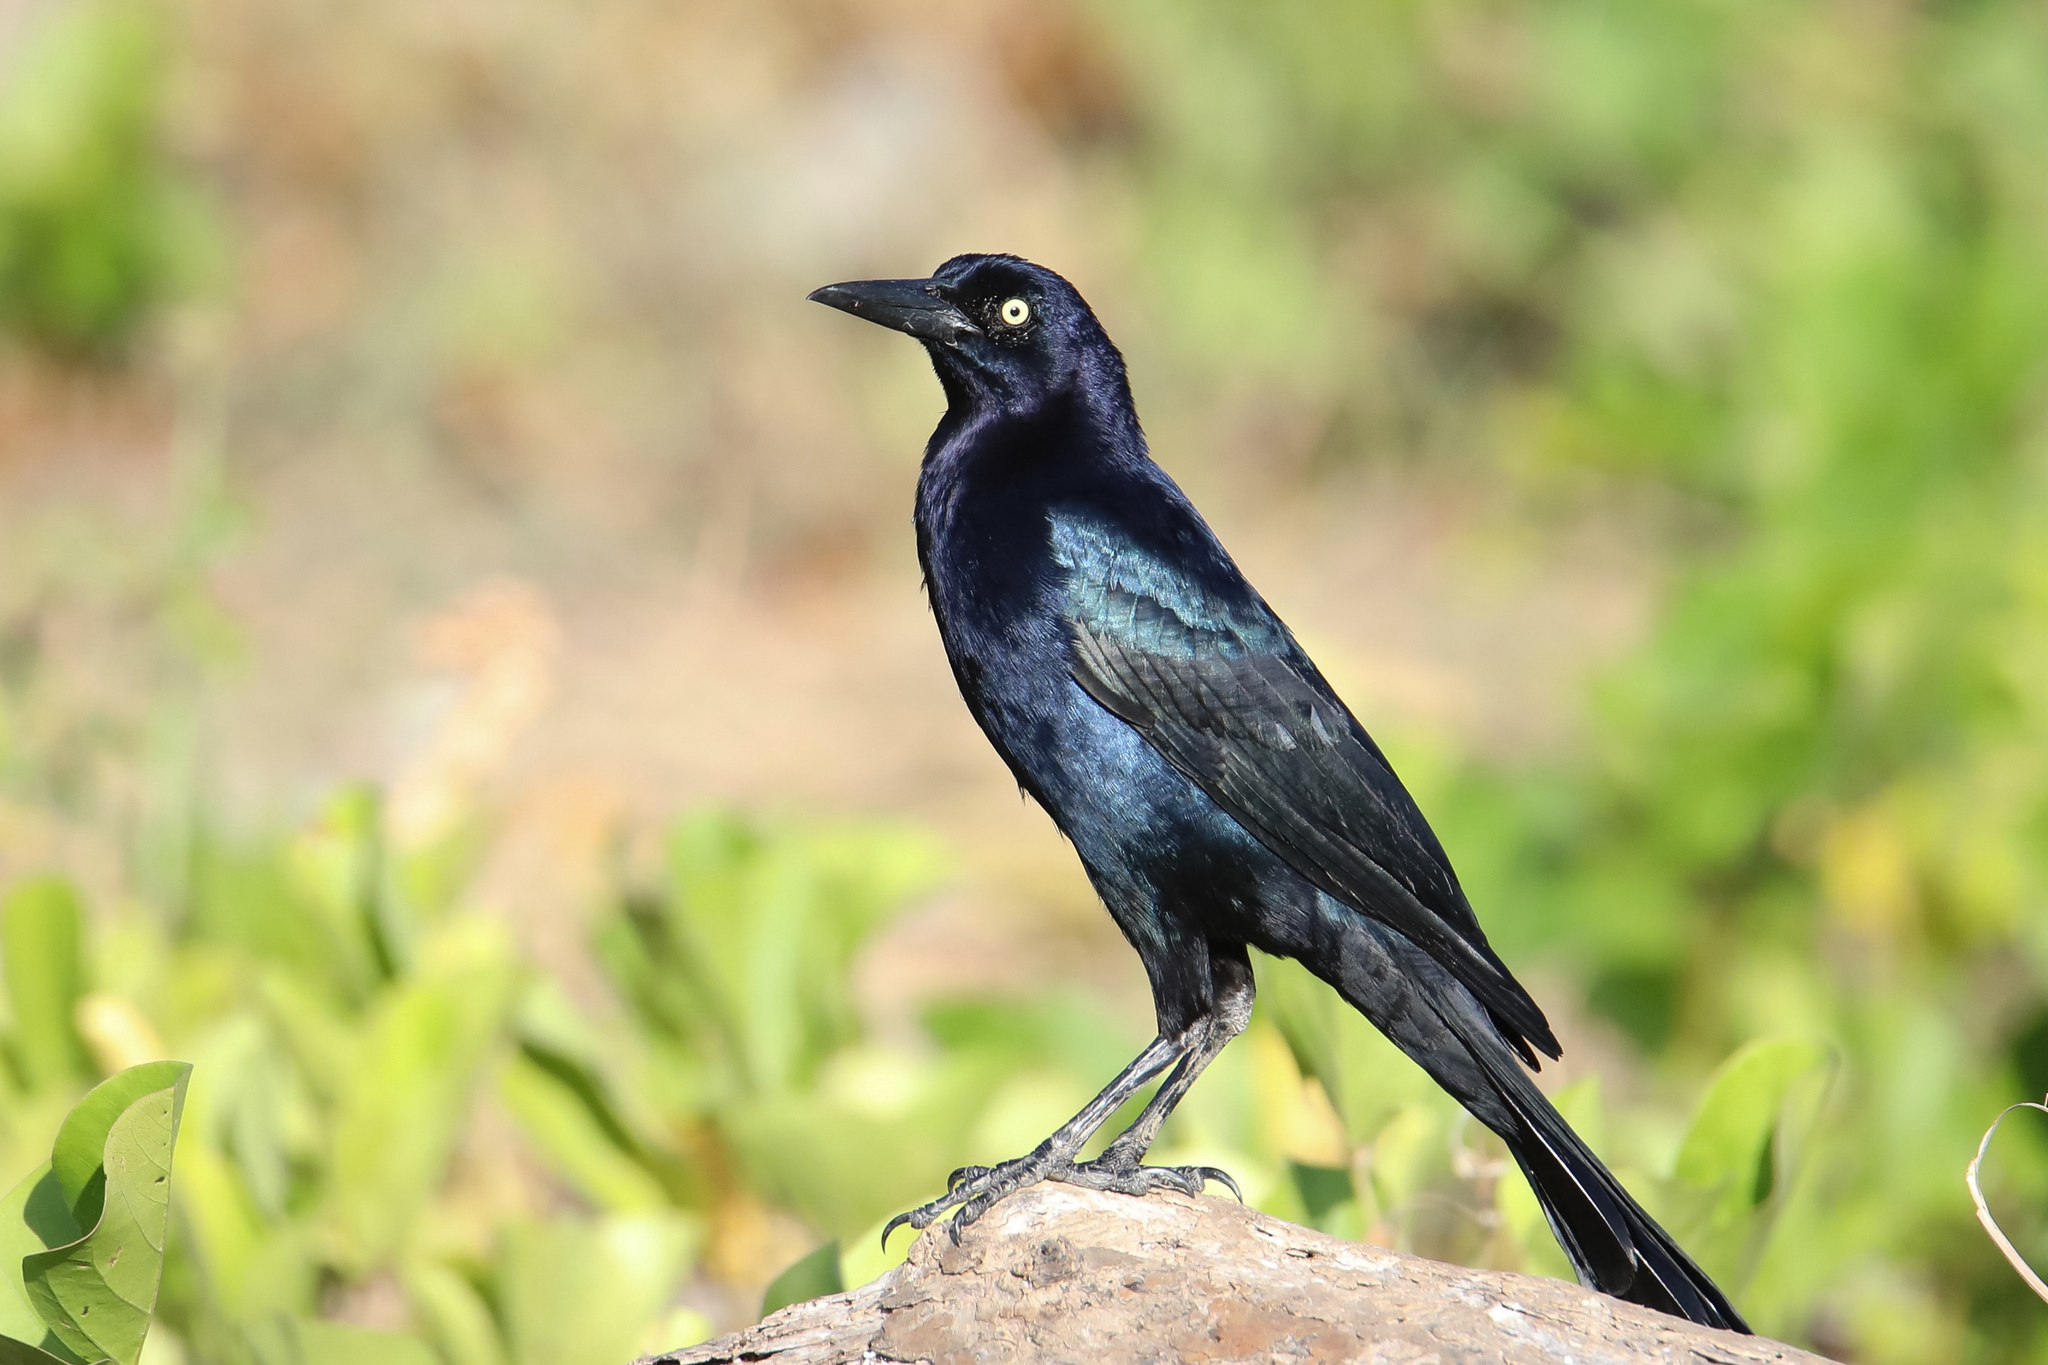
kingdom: Animalia
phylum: Chordata
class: Aves
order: Passeriformes
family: Icteridae
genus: Quiscalus
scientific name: Quiscalus mexicanus
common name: Great-tailed grackle
